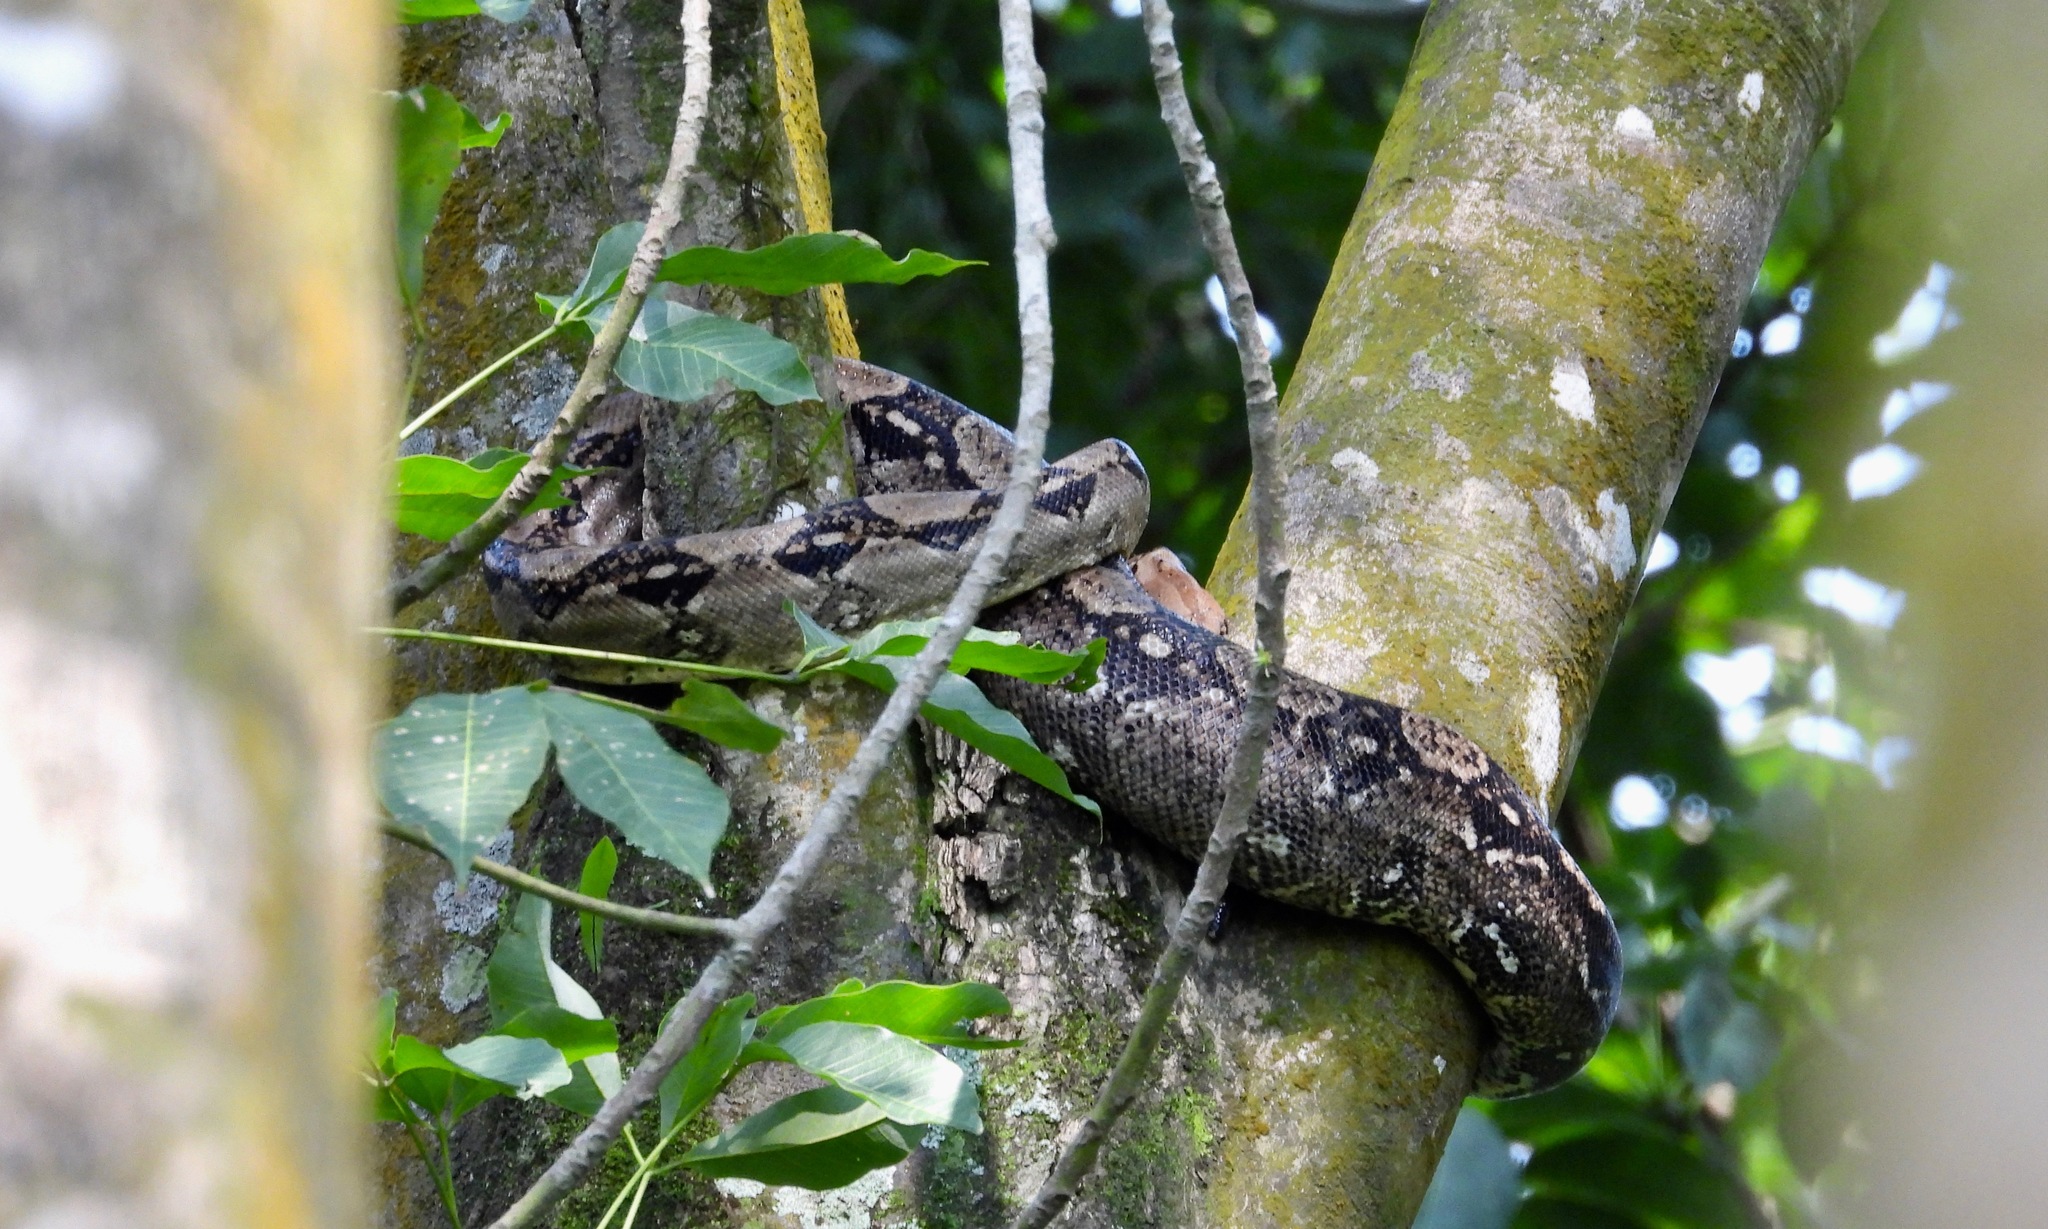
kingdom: Animalia
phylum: Chordata
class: Squamata
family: Boidae
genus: Boa
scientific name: Boa imperator
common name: Central american boa
